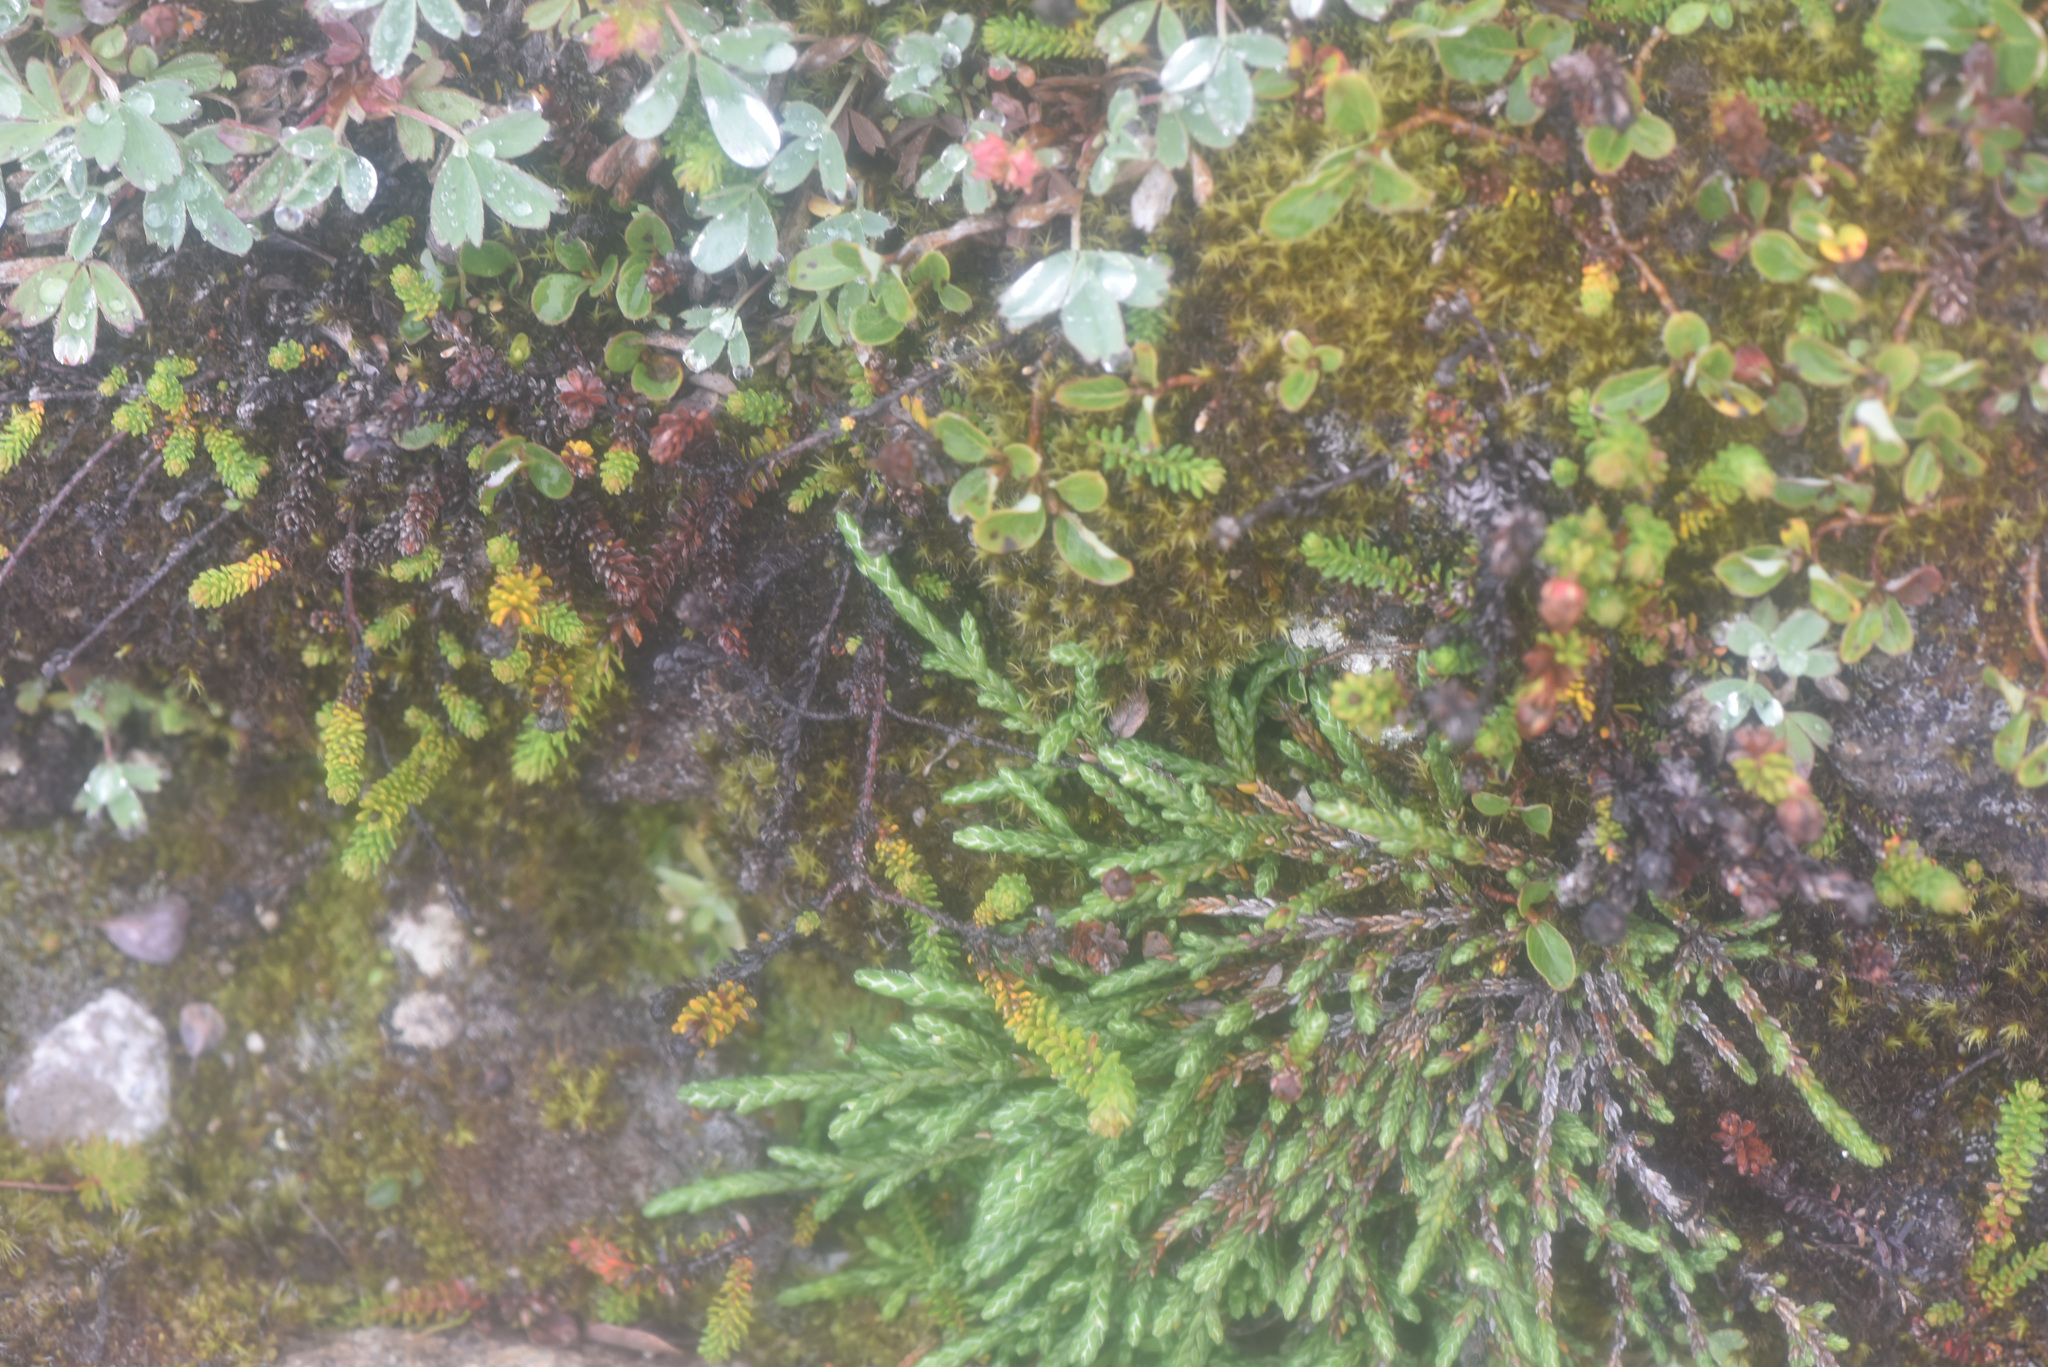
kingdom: Plantae
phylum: Tracheophyta
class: Magnoliopsida
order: Ericales
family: Ericaceae
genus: Cassiope
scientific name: Cassiope lycopodioides
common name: Clubmoss mountain heather
